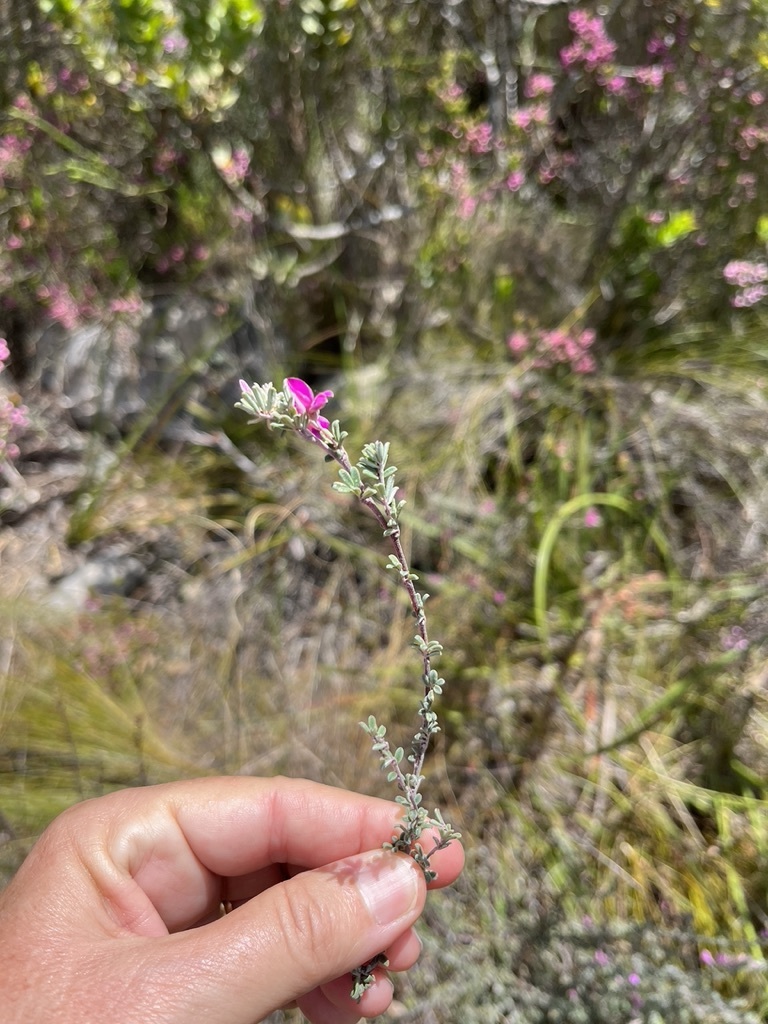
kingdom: Plantae
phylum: Tracheophyta
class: Magnoliopsida
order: Fabales
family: Fabaceae
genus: Indigofera
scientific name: Indigofera
